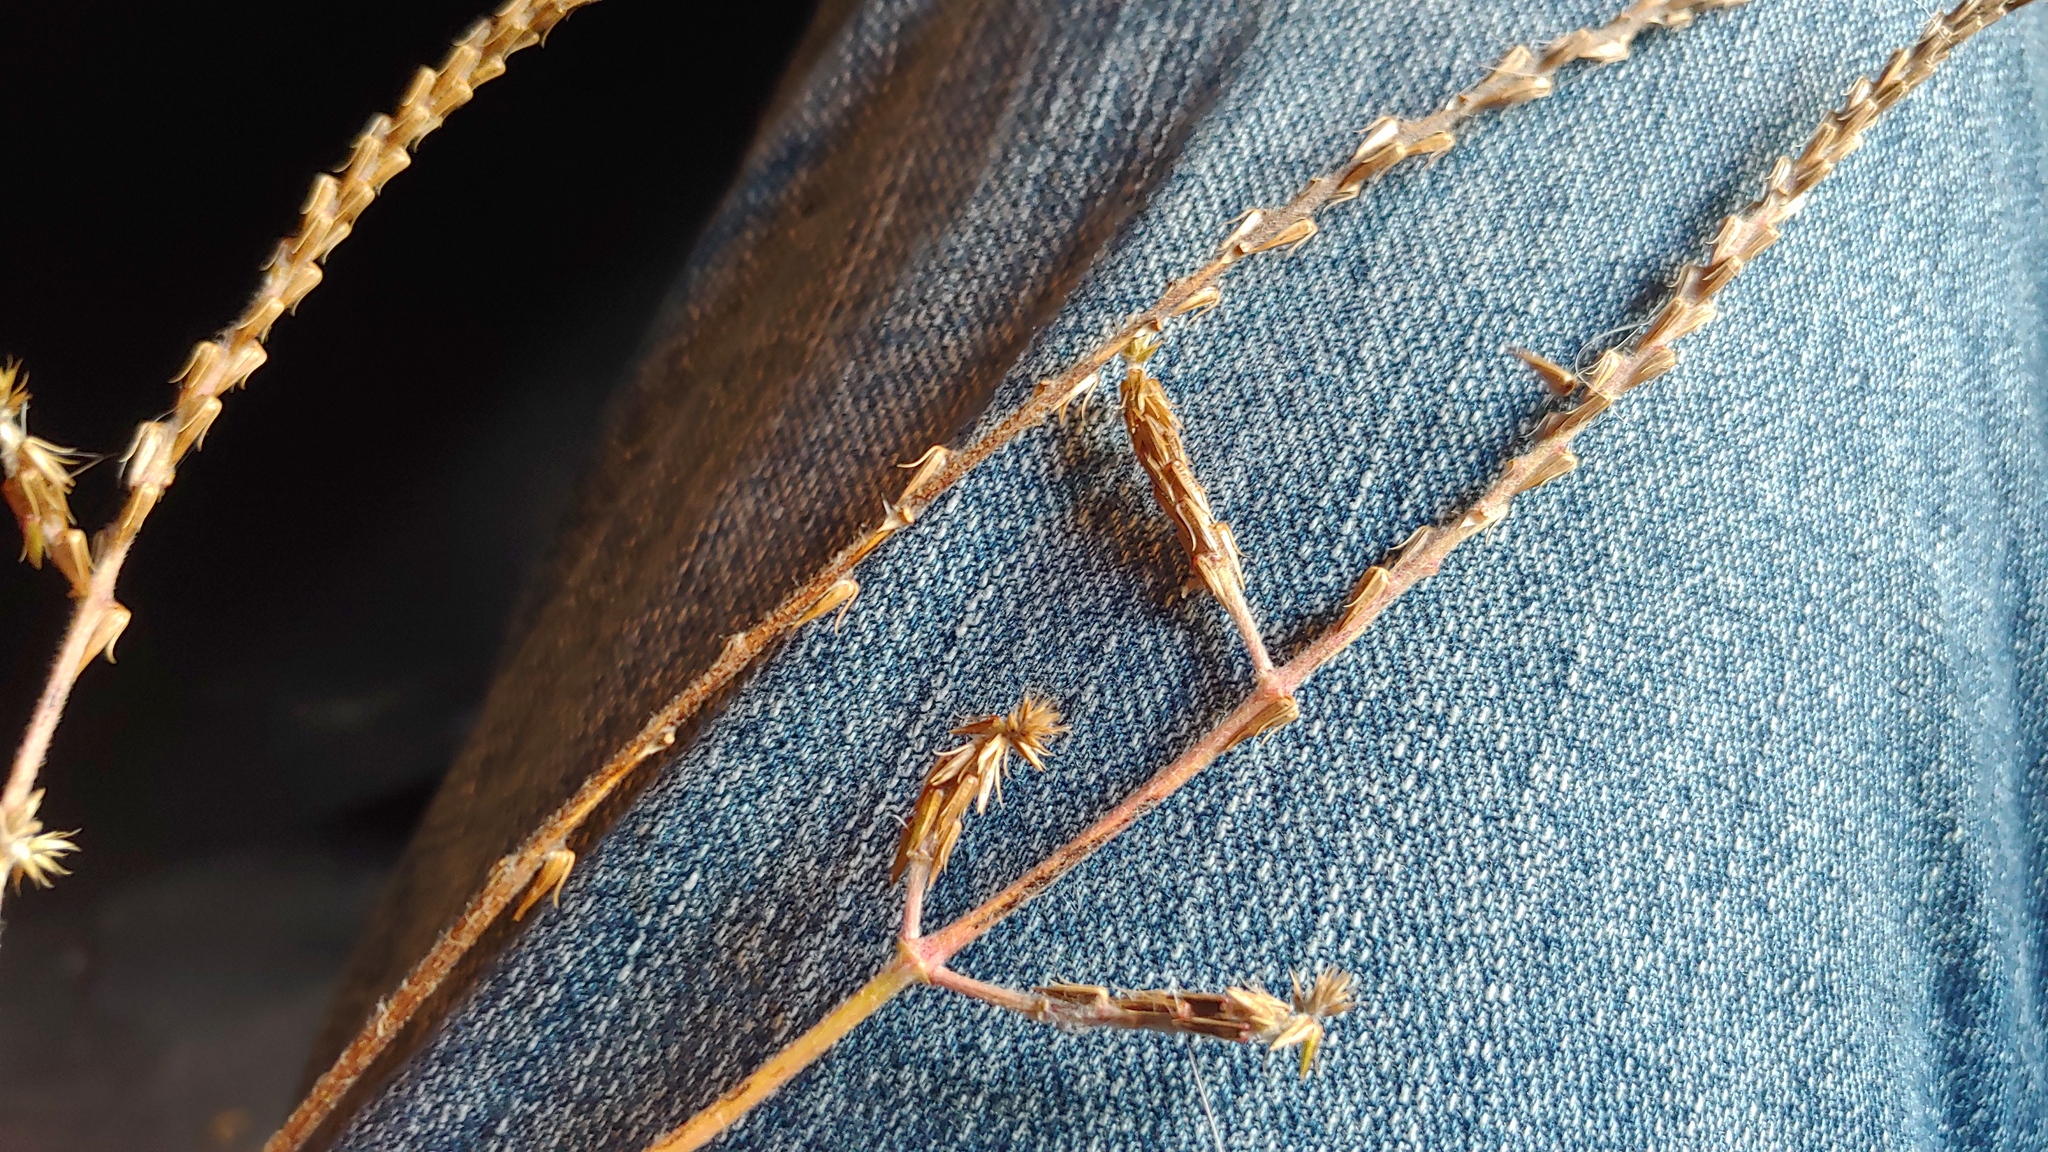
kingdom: Plantae
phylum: Tracheophyta
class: Magnoliopsida
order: Caryophyllales
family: Amaranthaceae
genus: Achyranthes
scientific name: Achyranthes bidentata
